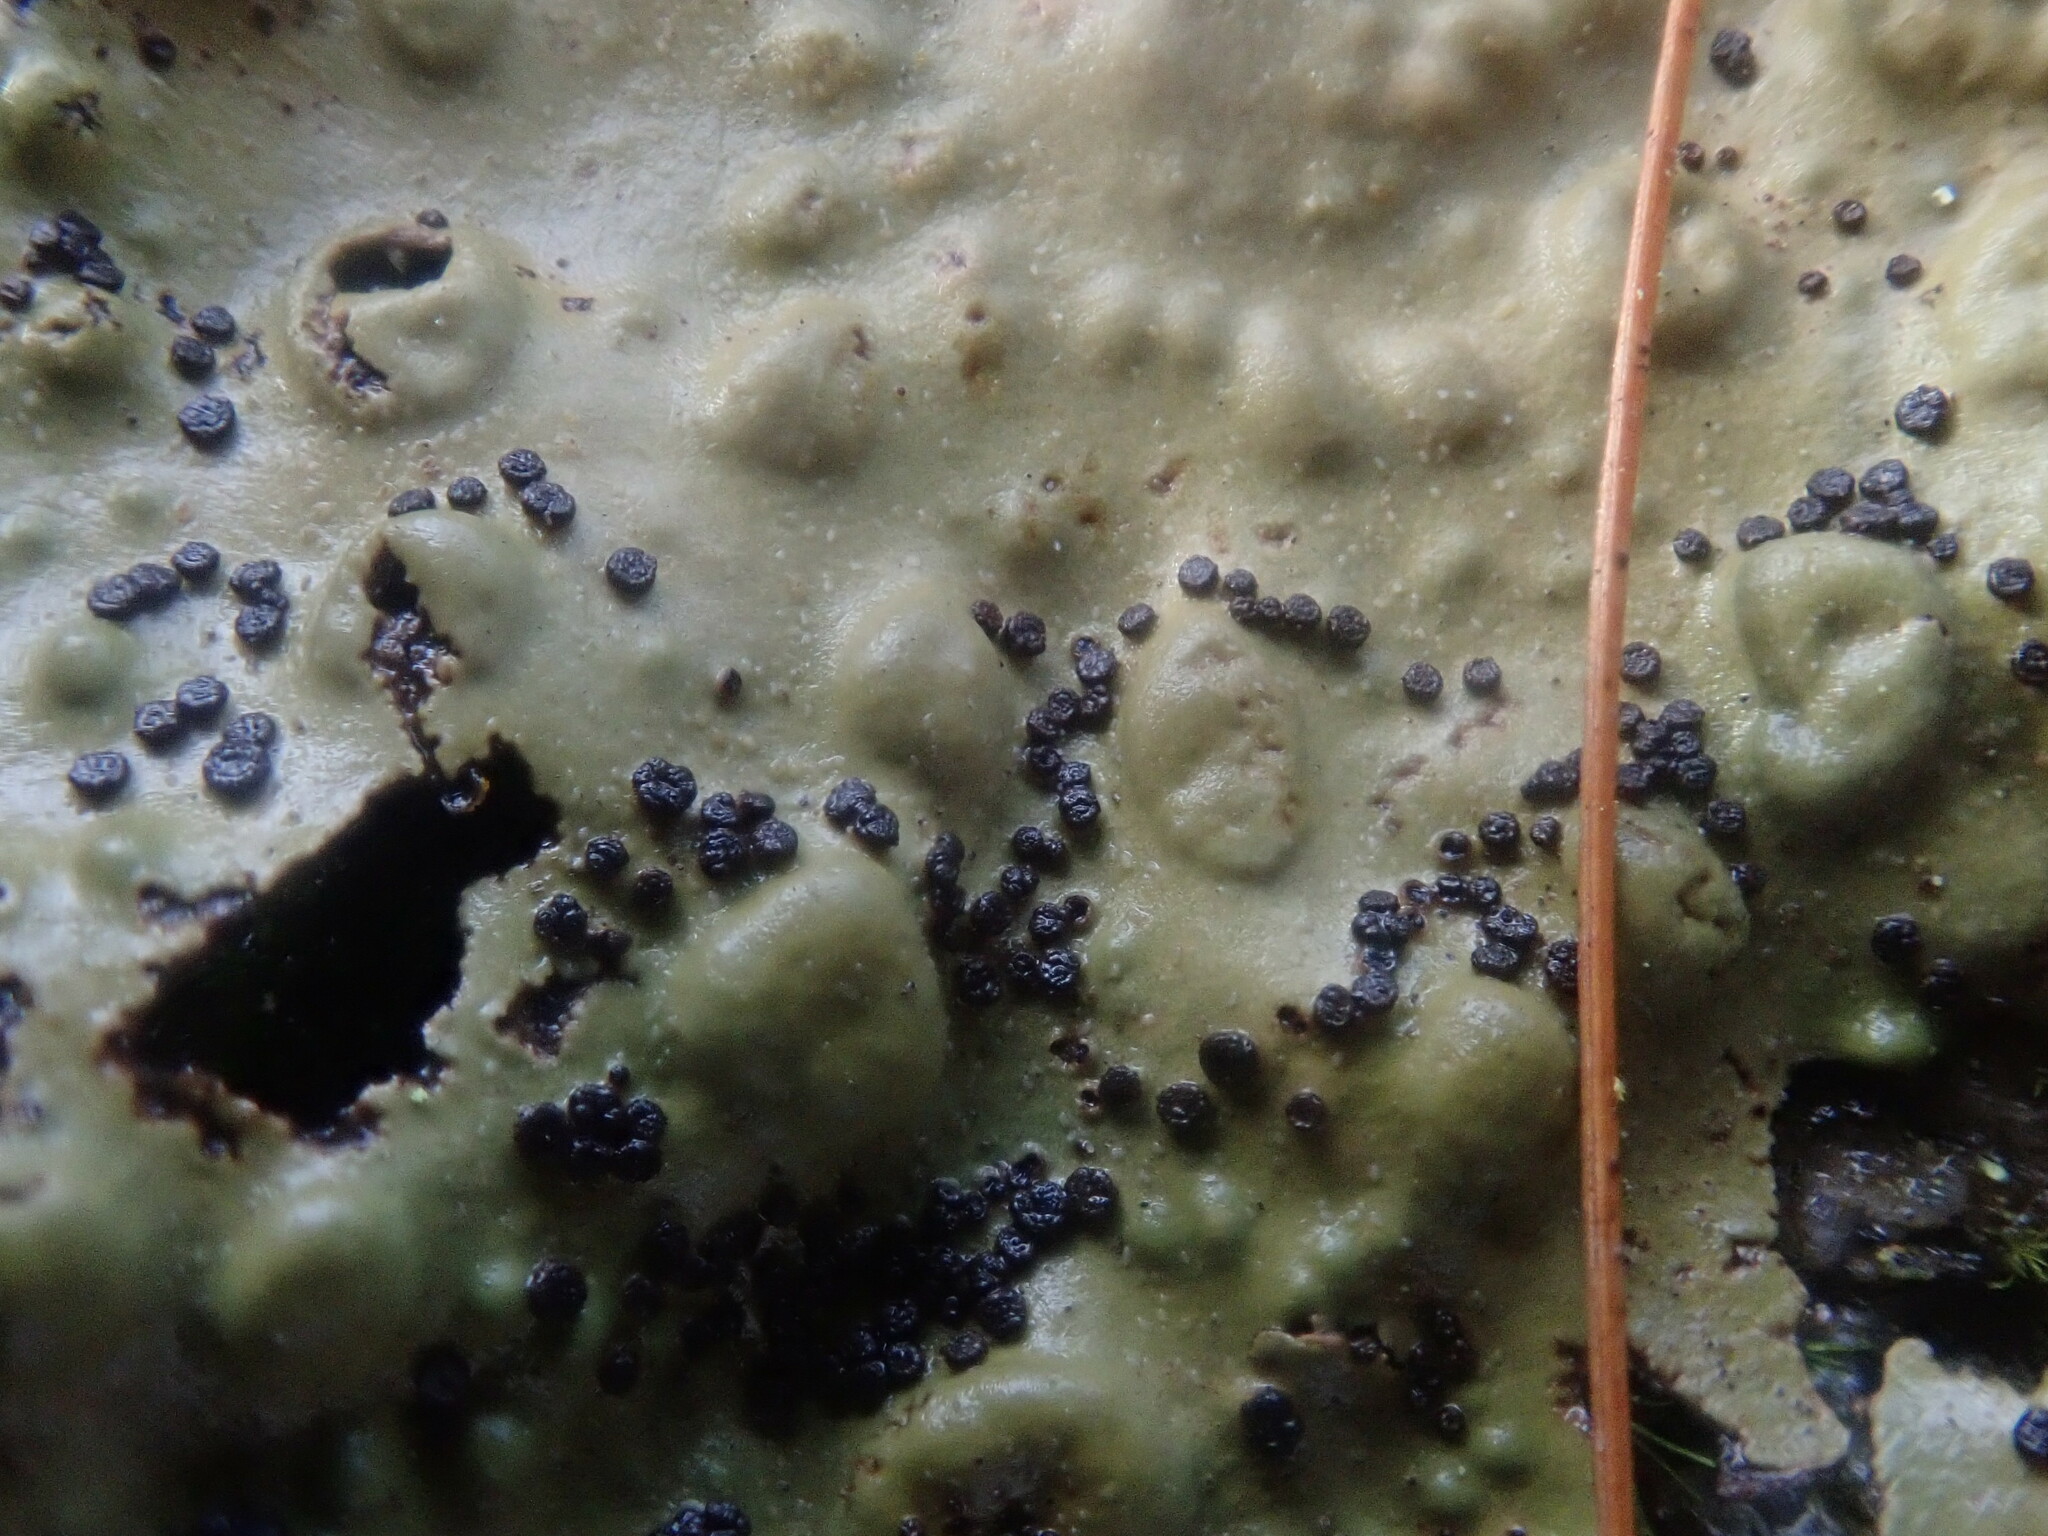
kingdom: Fungi
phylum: Ascomycota
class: Lecanoromycetes
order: Umbilicariales
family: Umbilicariaceae
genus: Lasallia
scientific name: Lasallia papulosa
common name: Common toadskin lichen
